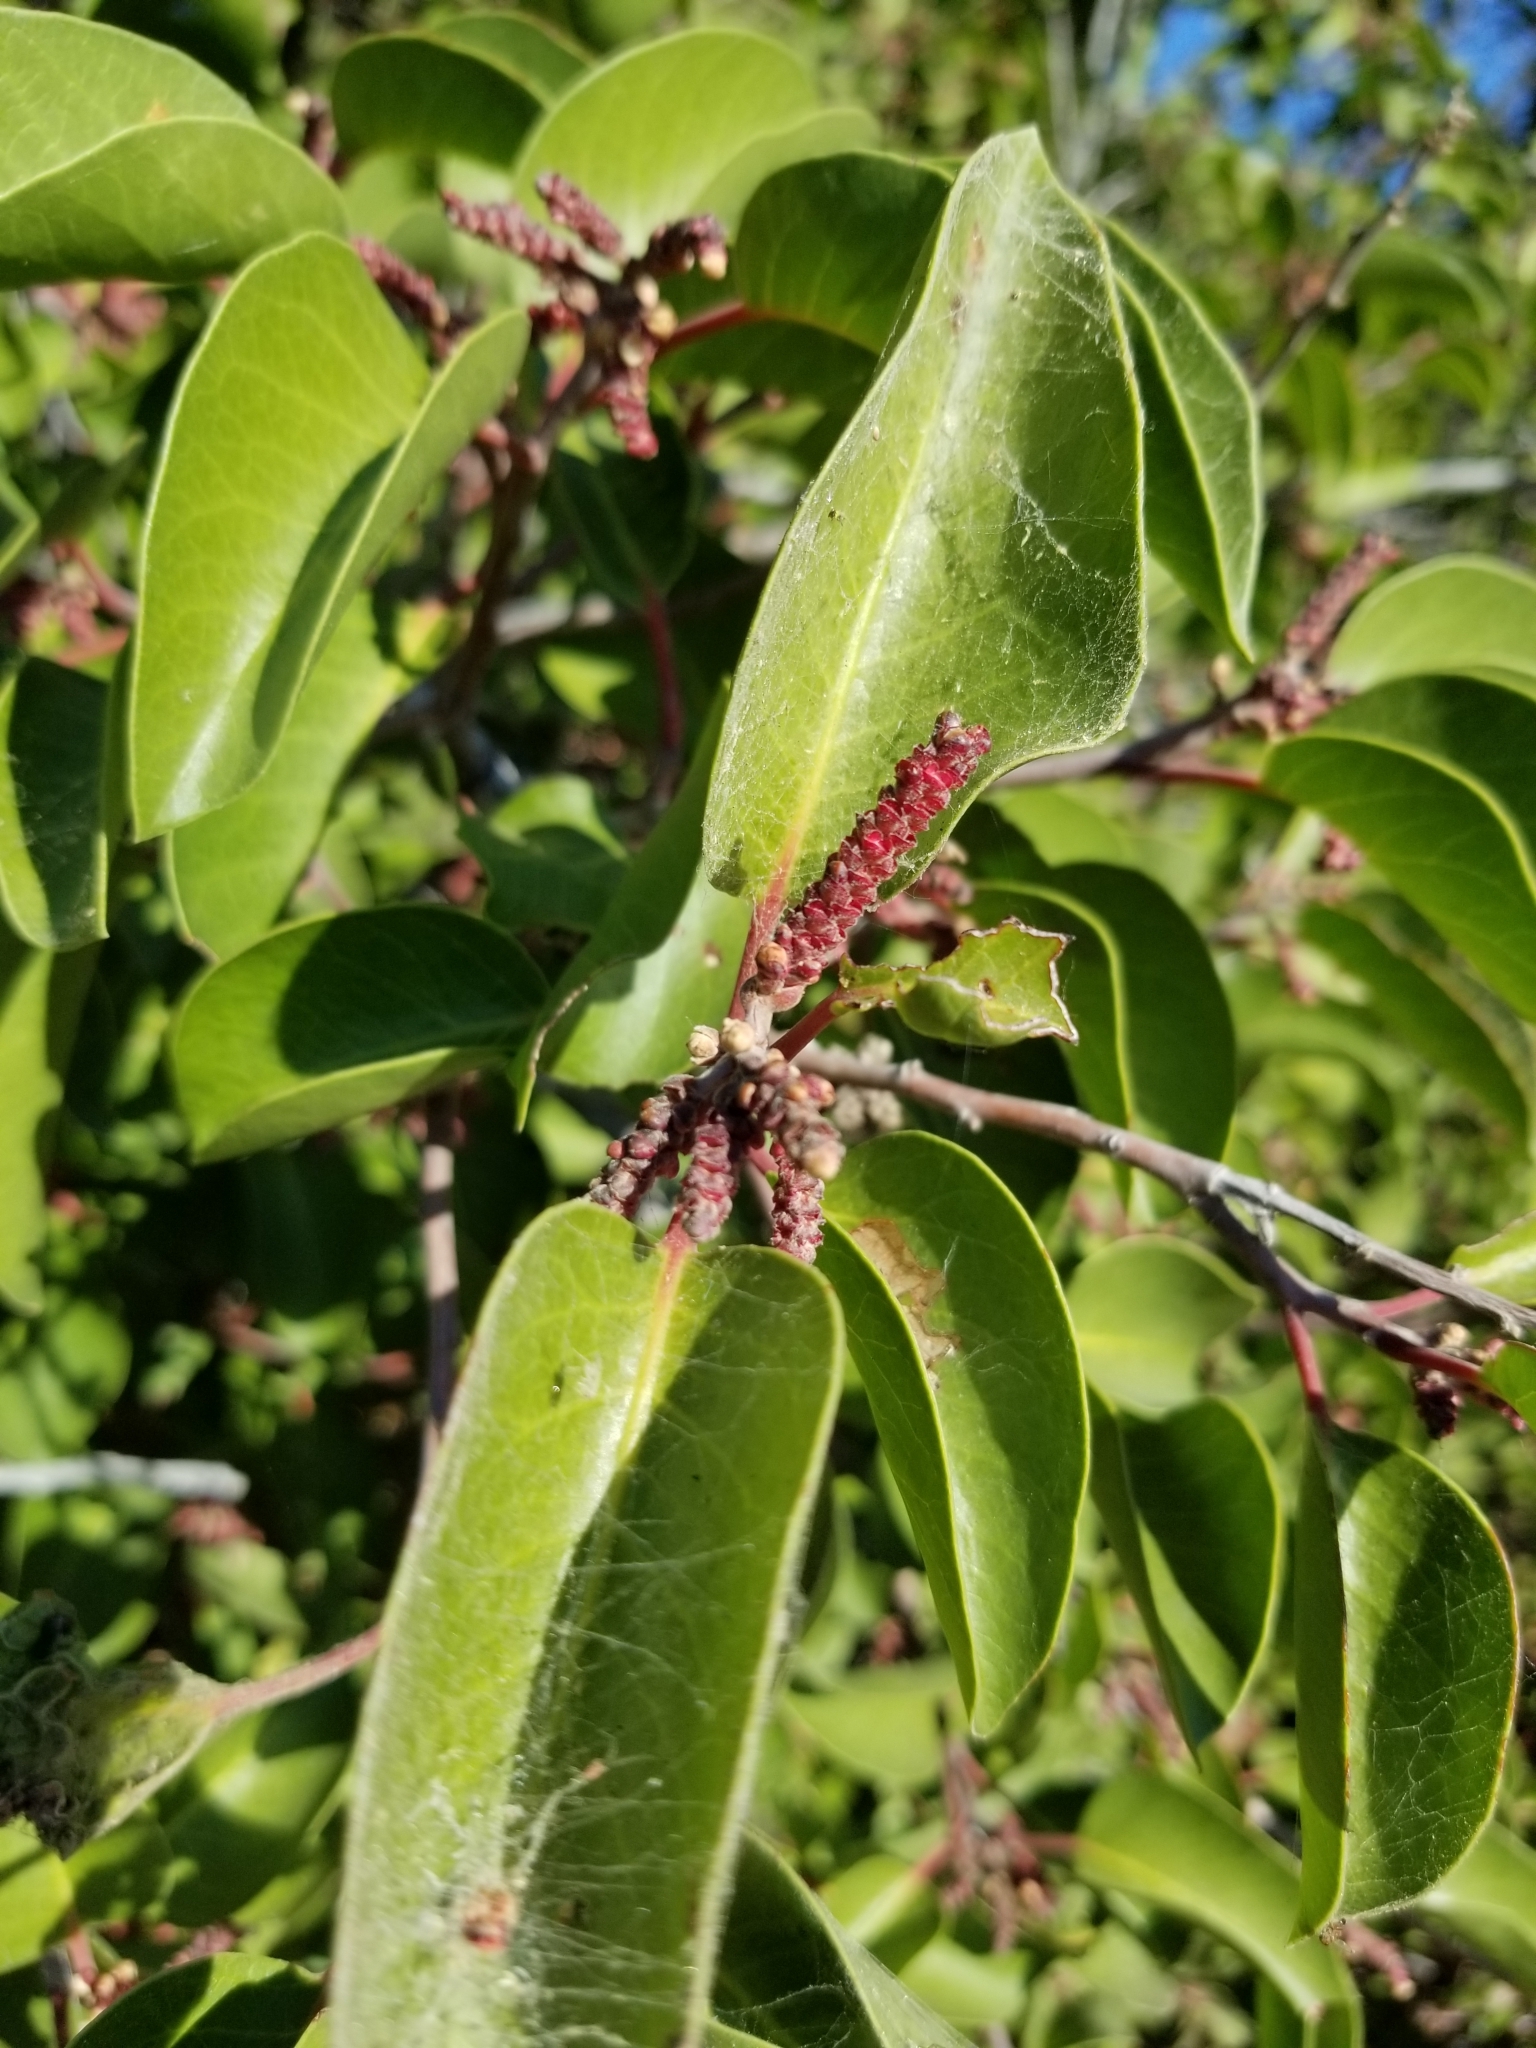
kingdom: Plantae
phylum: Tracheophyta
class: Magnoliopsida
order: Sapindales
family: Anacardiaceae
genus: Rhus
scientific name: Rhus ovata
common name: Sugar sumac
